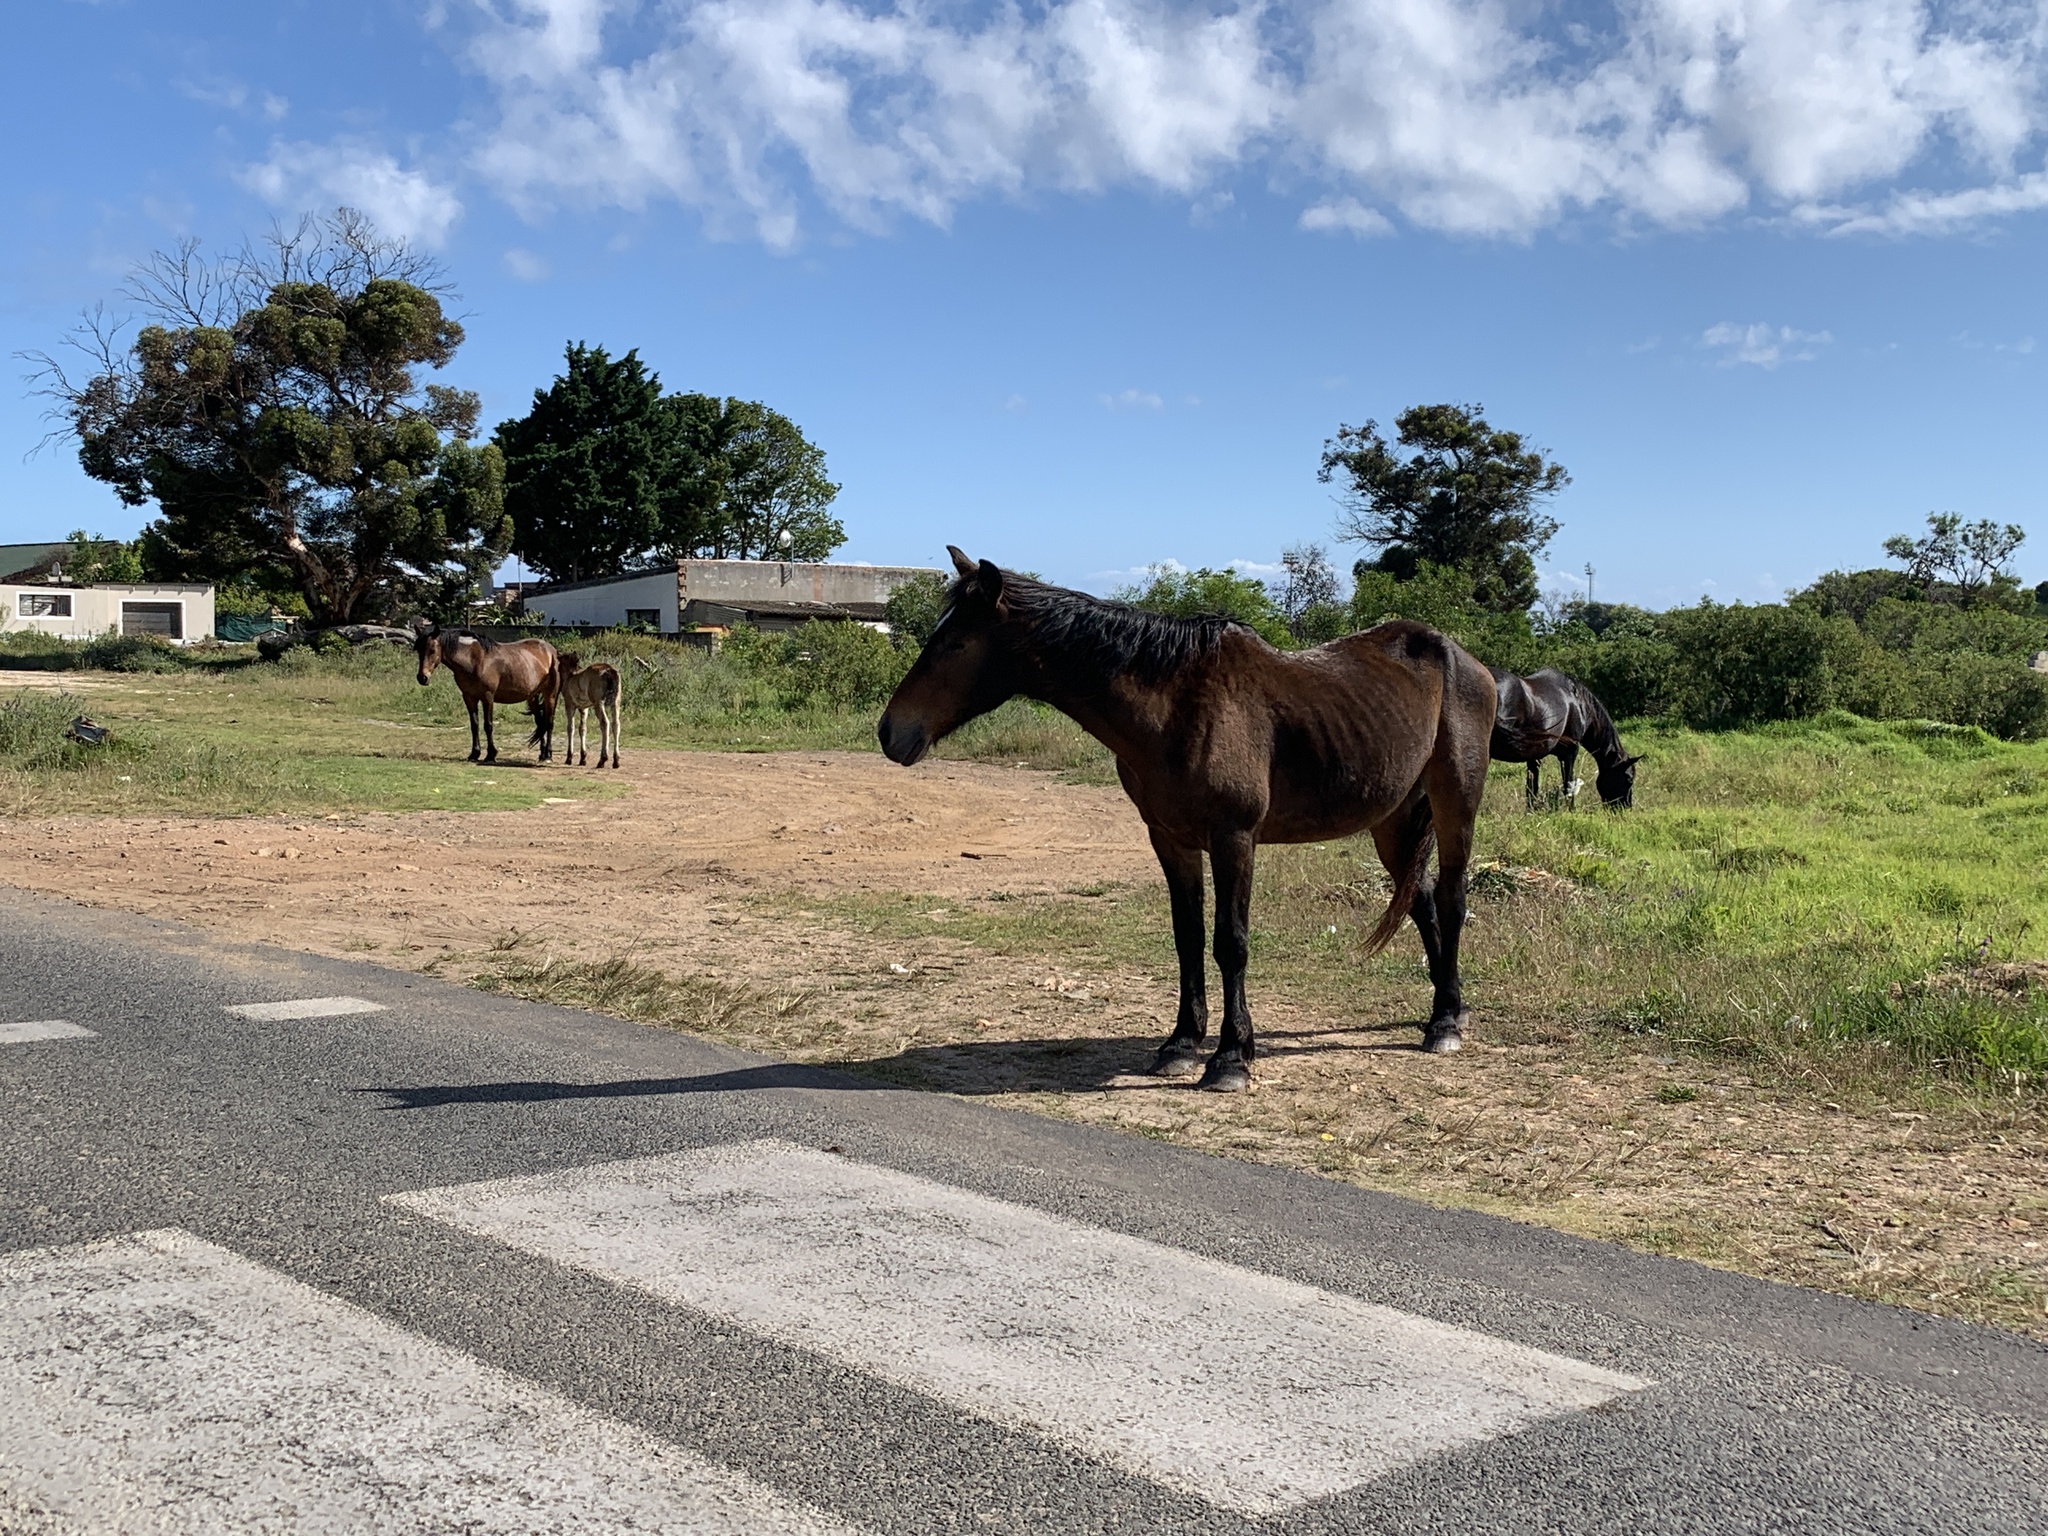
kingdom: Animalia
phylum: Chordata
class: Mammalia
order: Perissodactyla
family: Equidae
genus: Equus
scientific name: Equus caballus
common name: Horse
